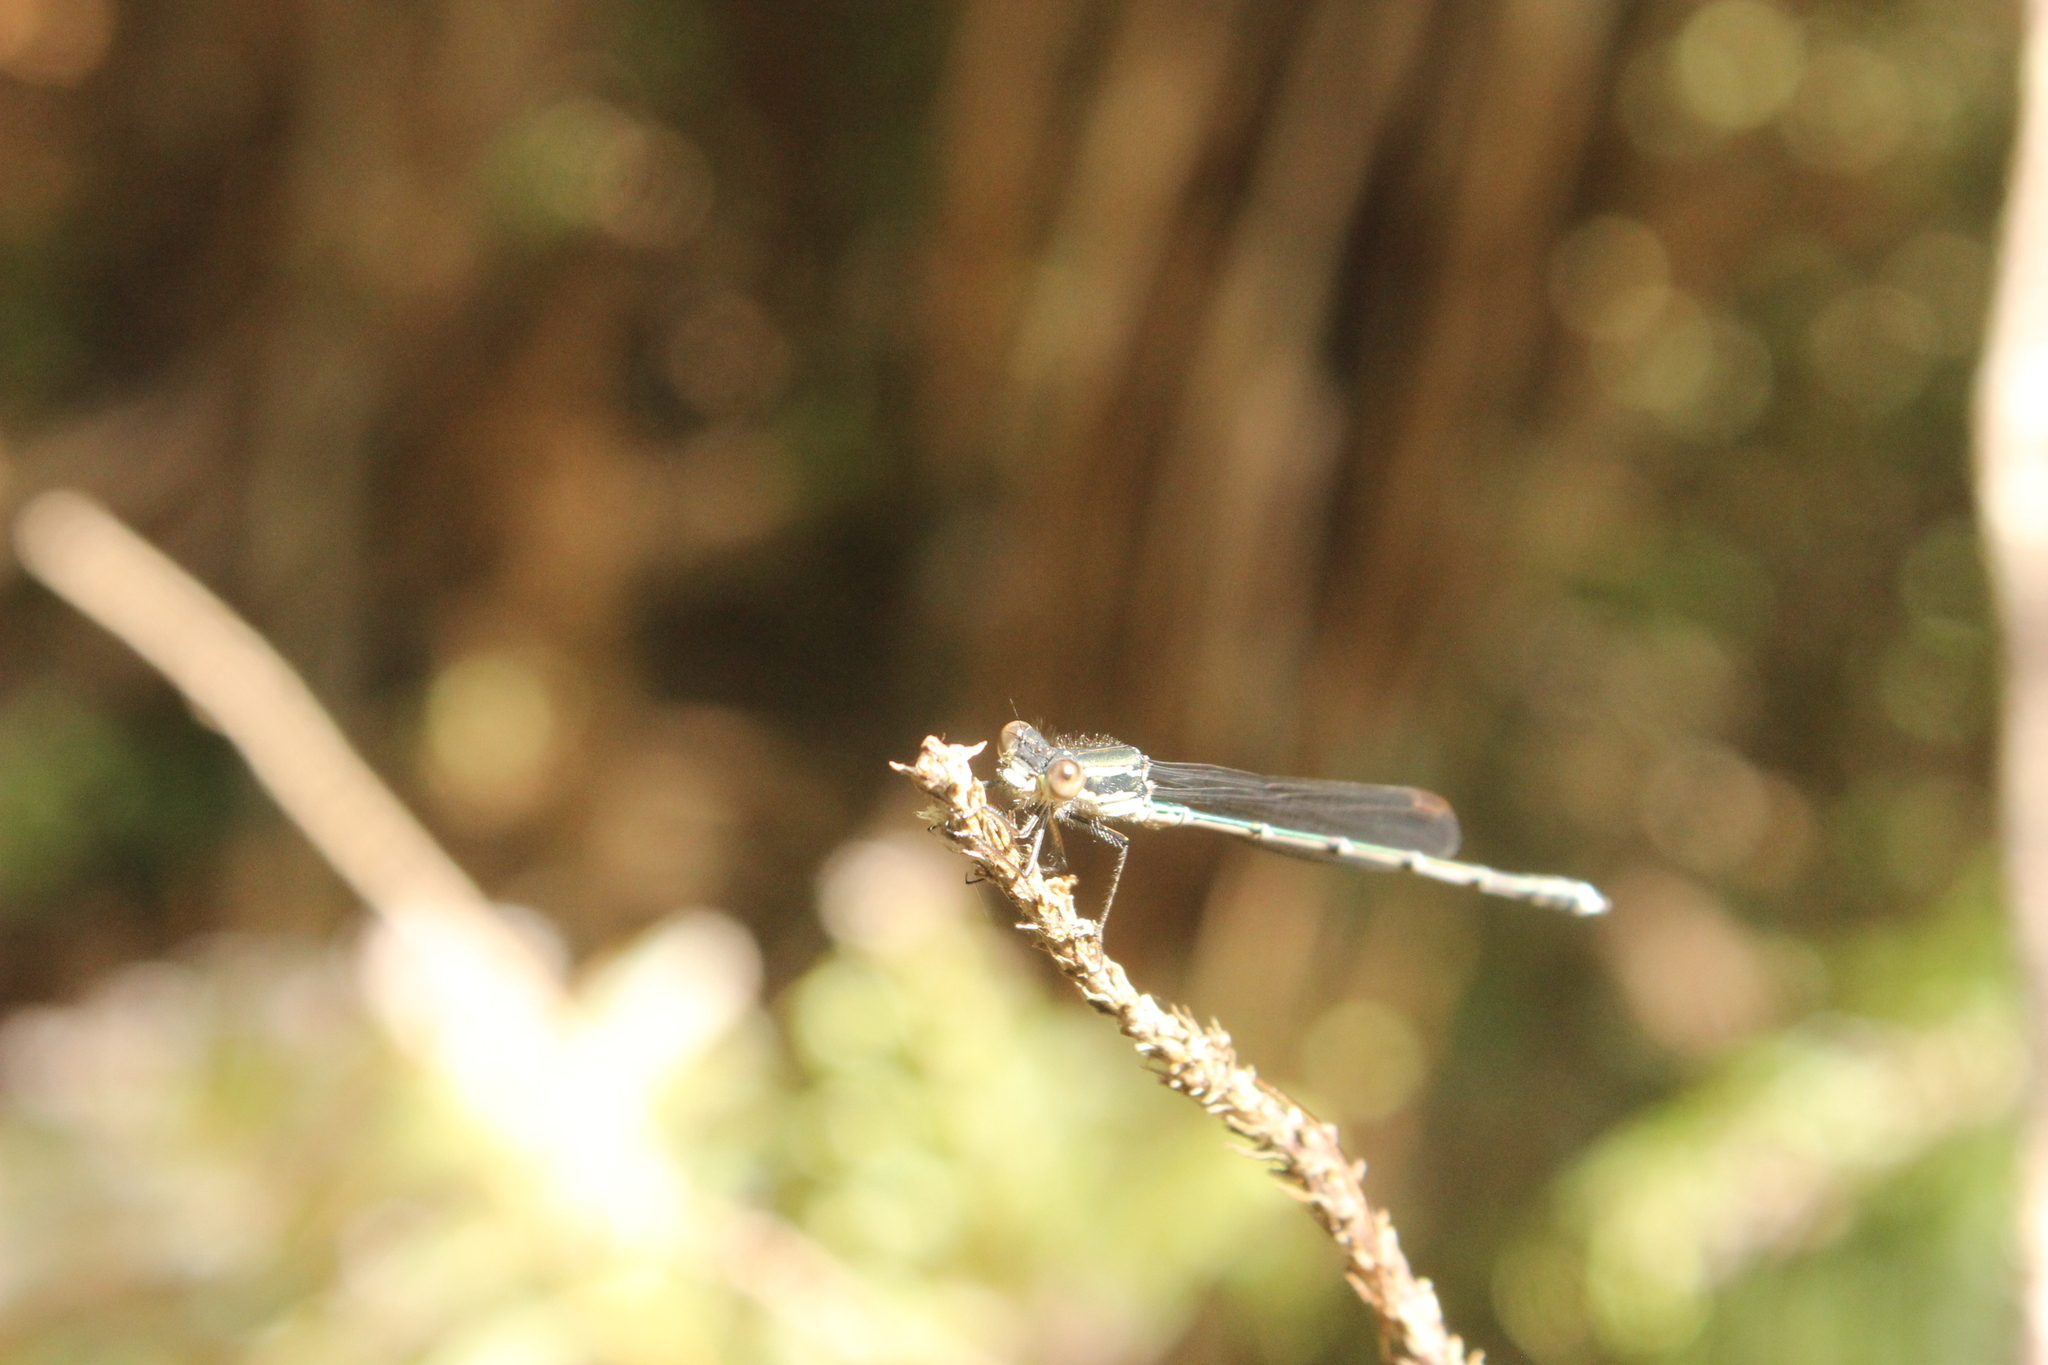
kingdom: Animalia
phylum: Arthropoda
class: Insecta
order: Odonata
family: Lestidae
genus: Austrolestes
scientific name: Austrolestes colensonis
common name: Blue damselfly
